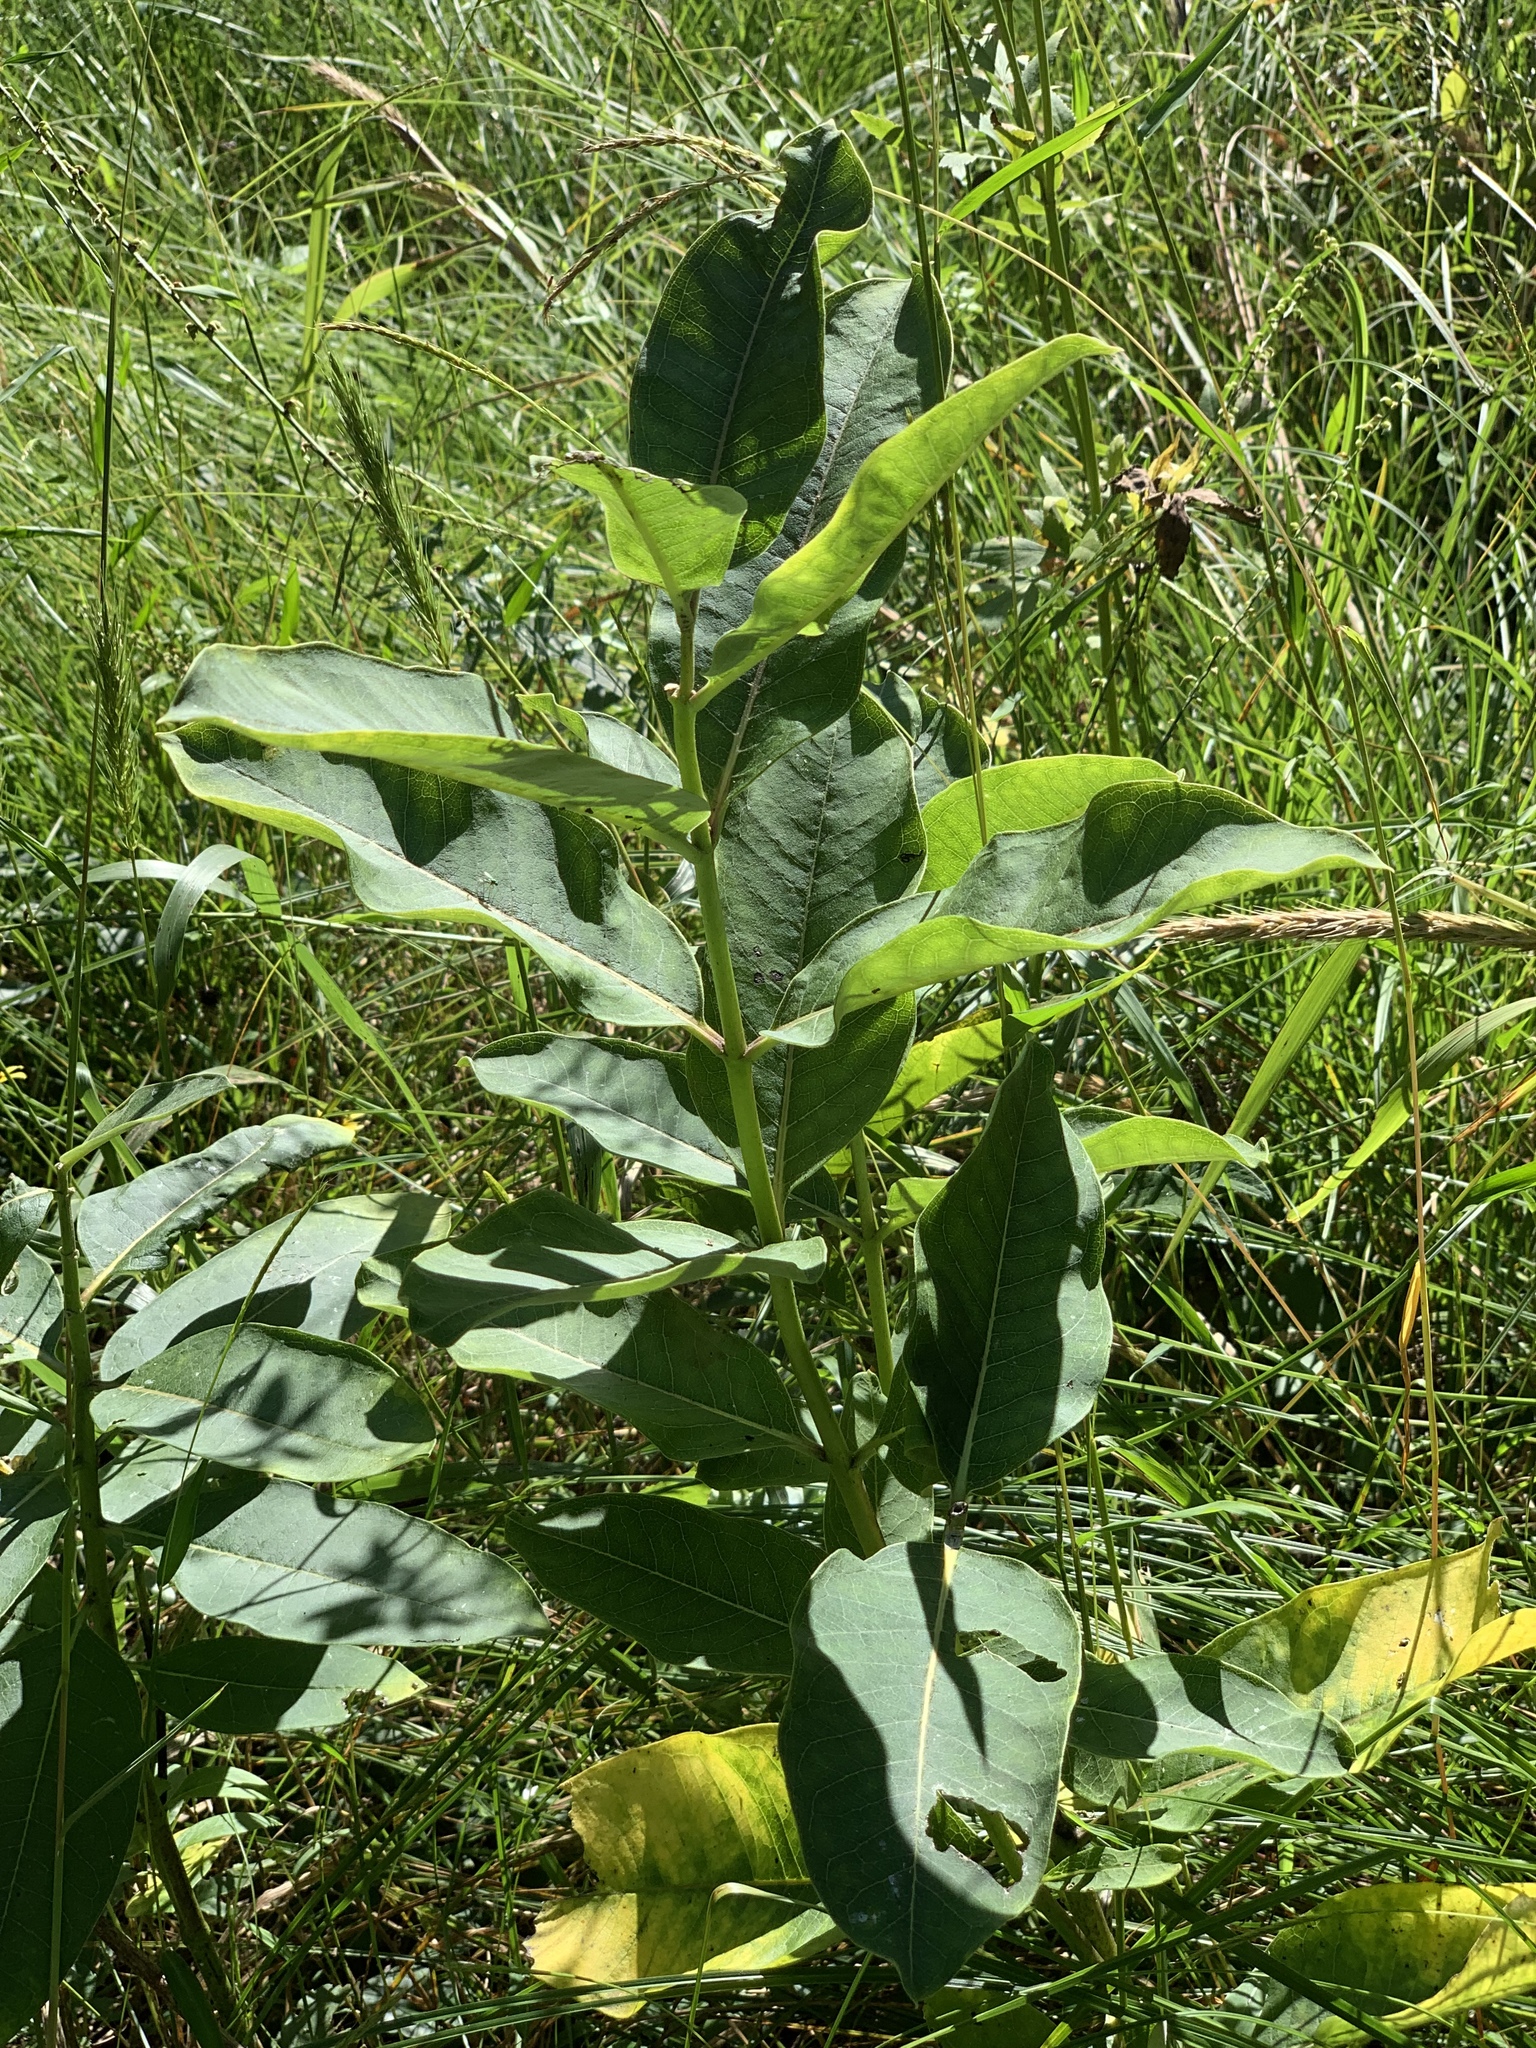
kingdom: Plantae
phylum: Tracheophyta
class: Magnoliopsida
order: Gentianales
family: Apocynaceae
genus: Asclepias
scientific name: Asclepias syriaca
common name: Common milkweed
